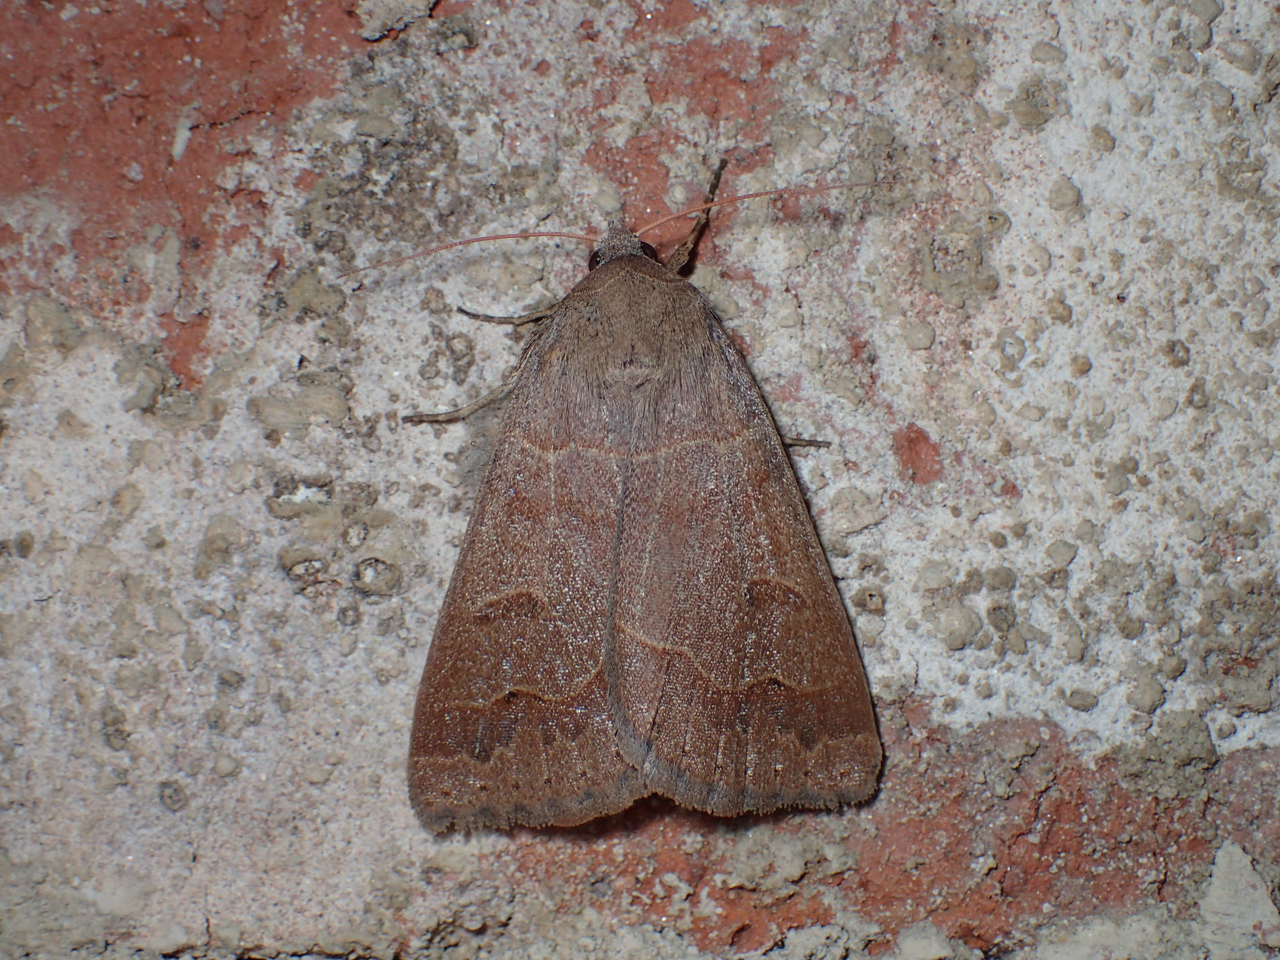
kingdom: Animalia
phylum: Arthropoda
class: Insecta
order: Lepidoptera
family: Erebidae
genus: Phoberia
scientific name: Phoberia atomaris
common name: Common oak moth
